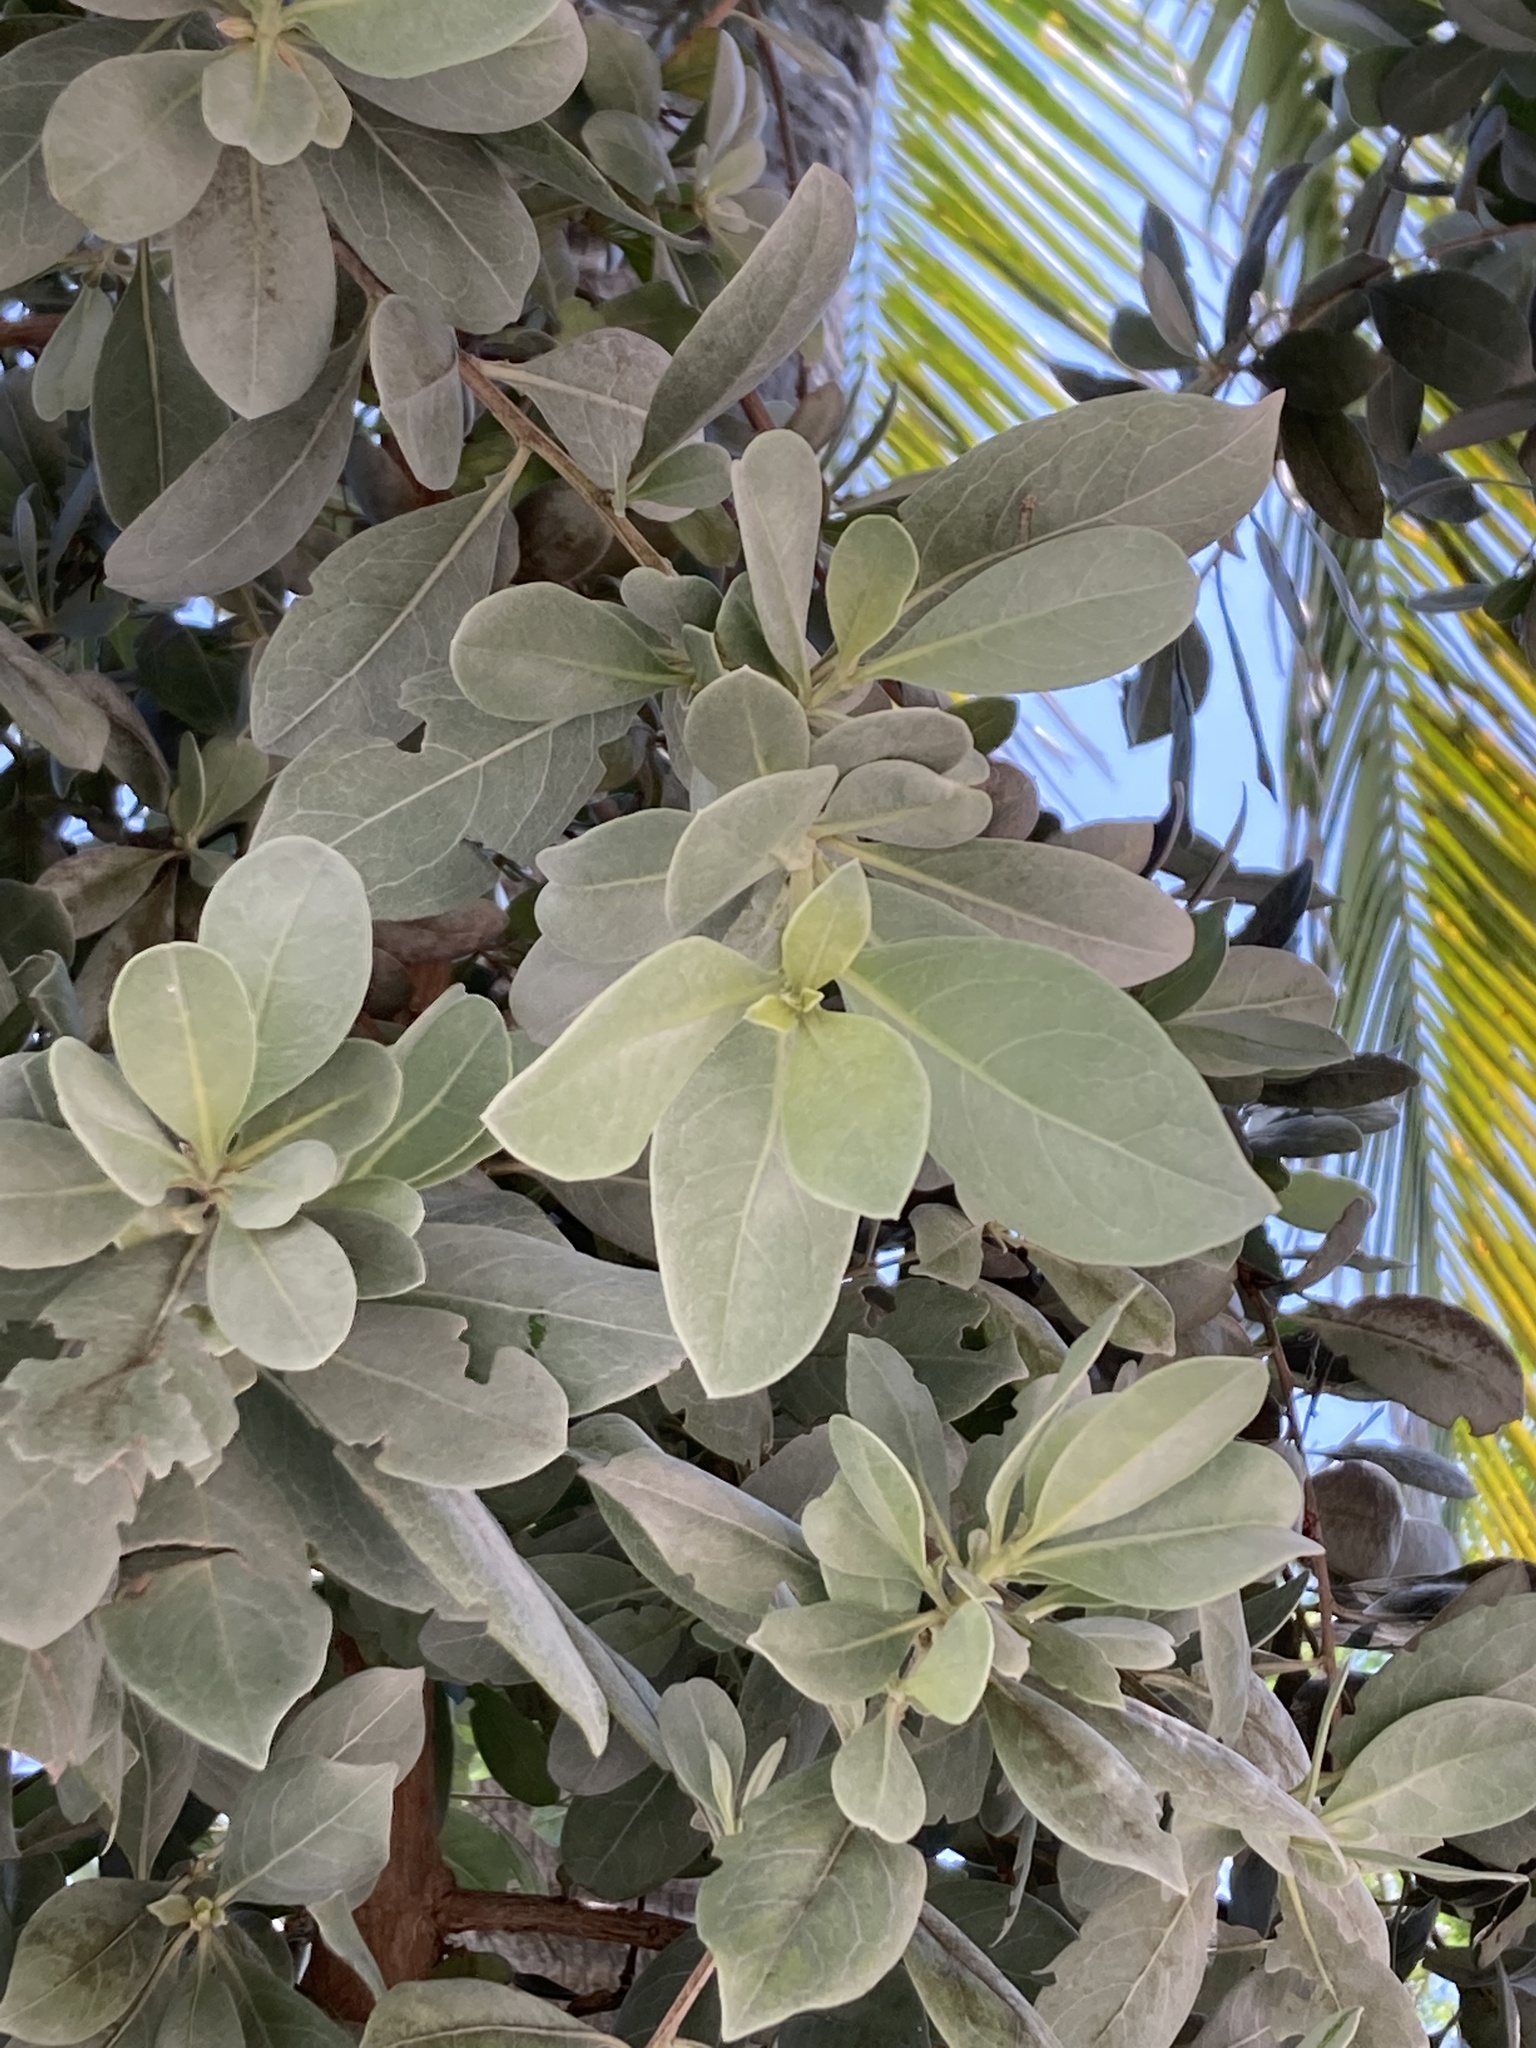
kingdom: Plantae
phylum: Tracheophyta
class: Magnoliopsida
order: Myrtales
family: Combretaceae
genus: Conocarpus
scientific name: Conocarpus erectus
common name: Button mangrove
